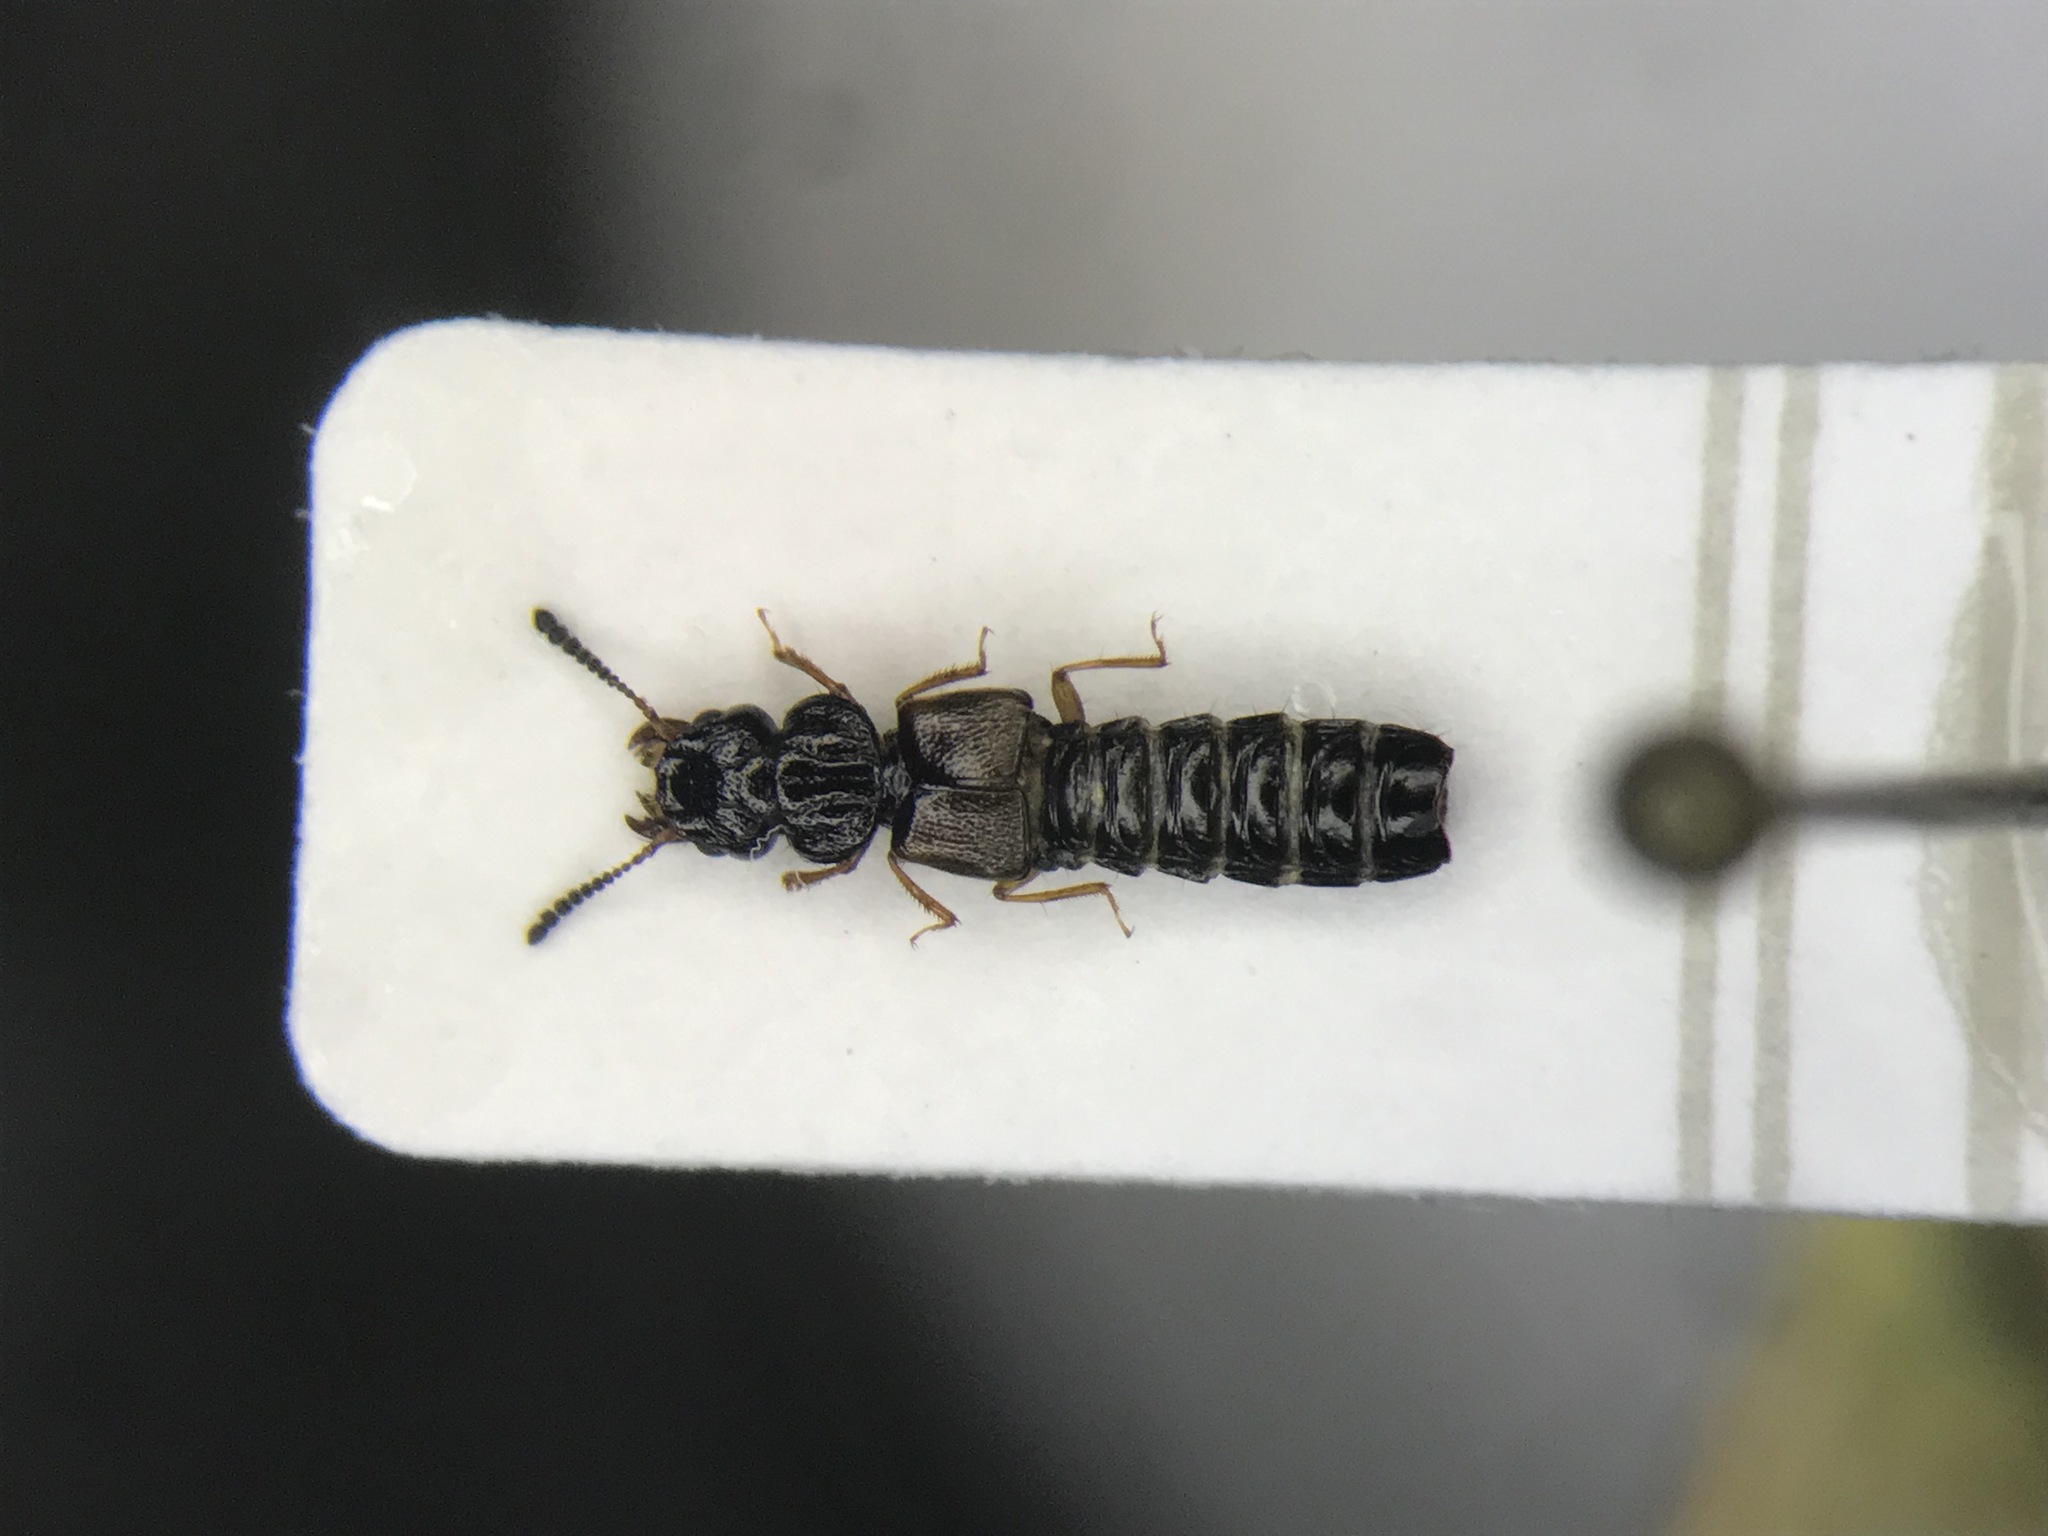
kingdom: Animalia
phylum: Arthropoda
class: Insecta
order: Coleoptera
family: Staphylinidae
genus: Oxytelus
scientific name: Oxytelus laqueatus
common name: Rove beetle
